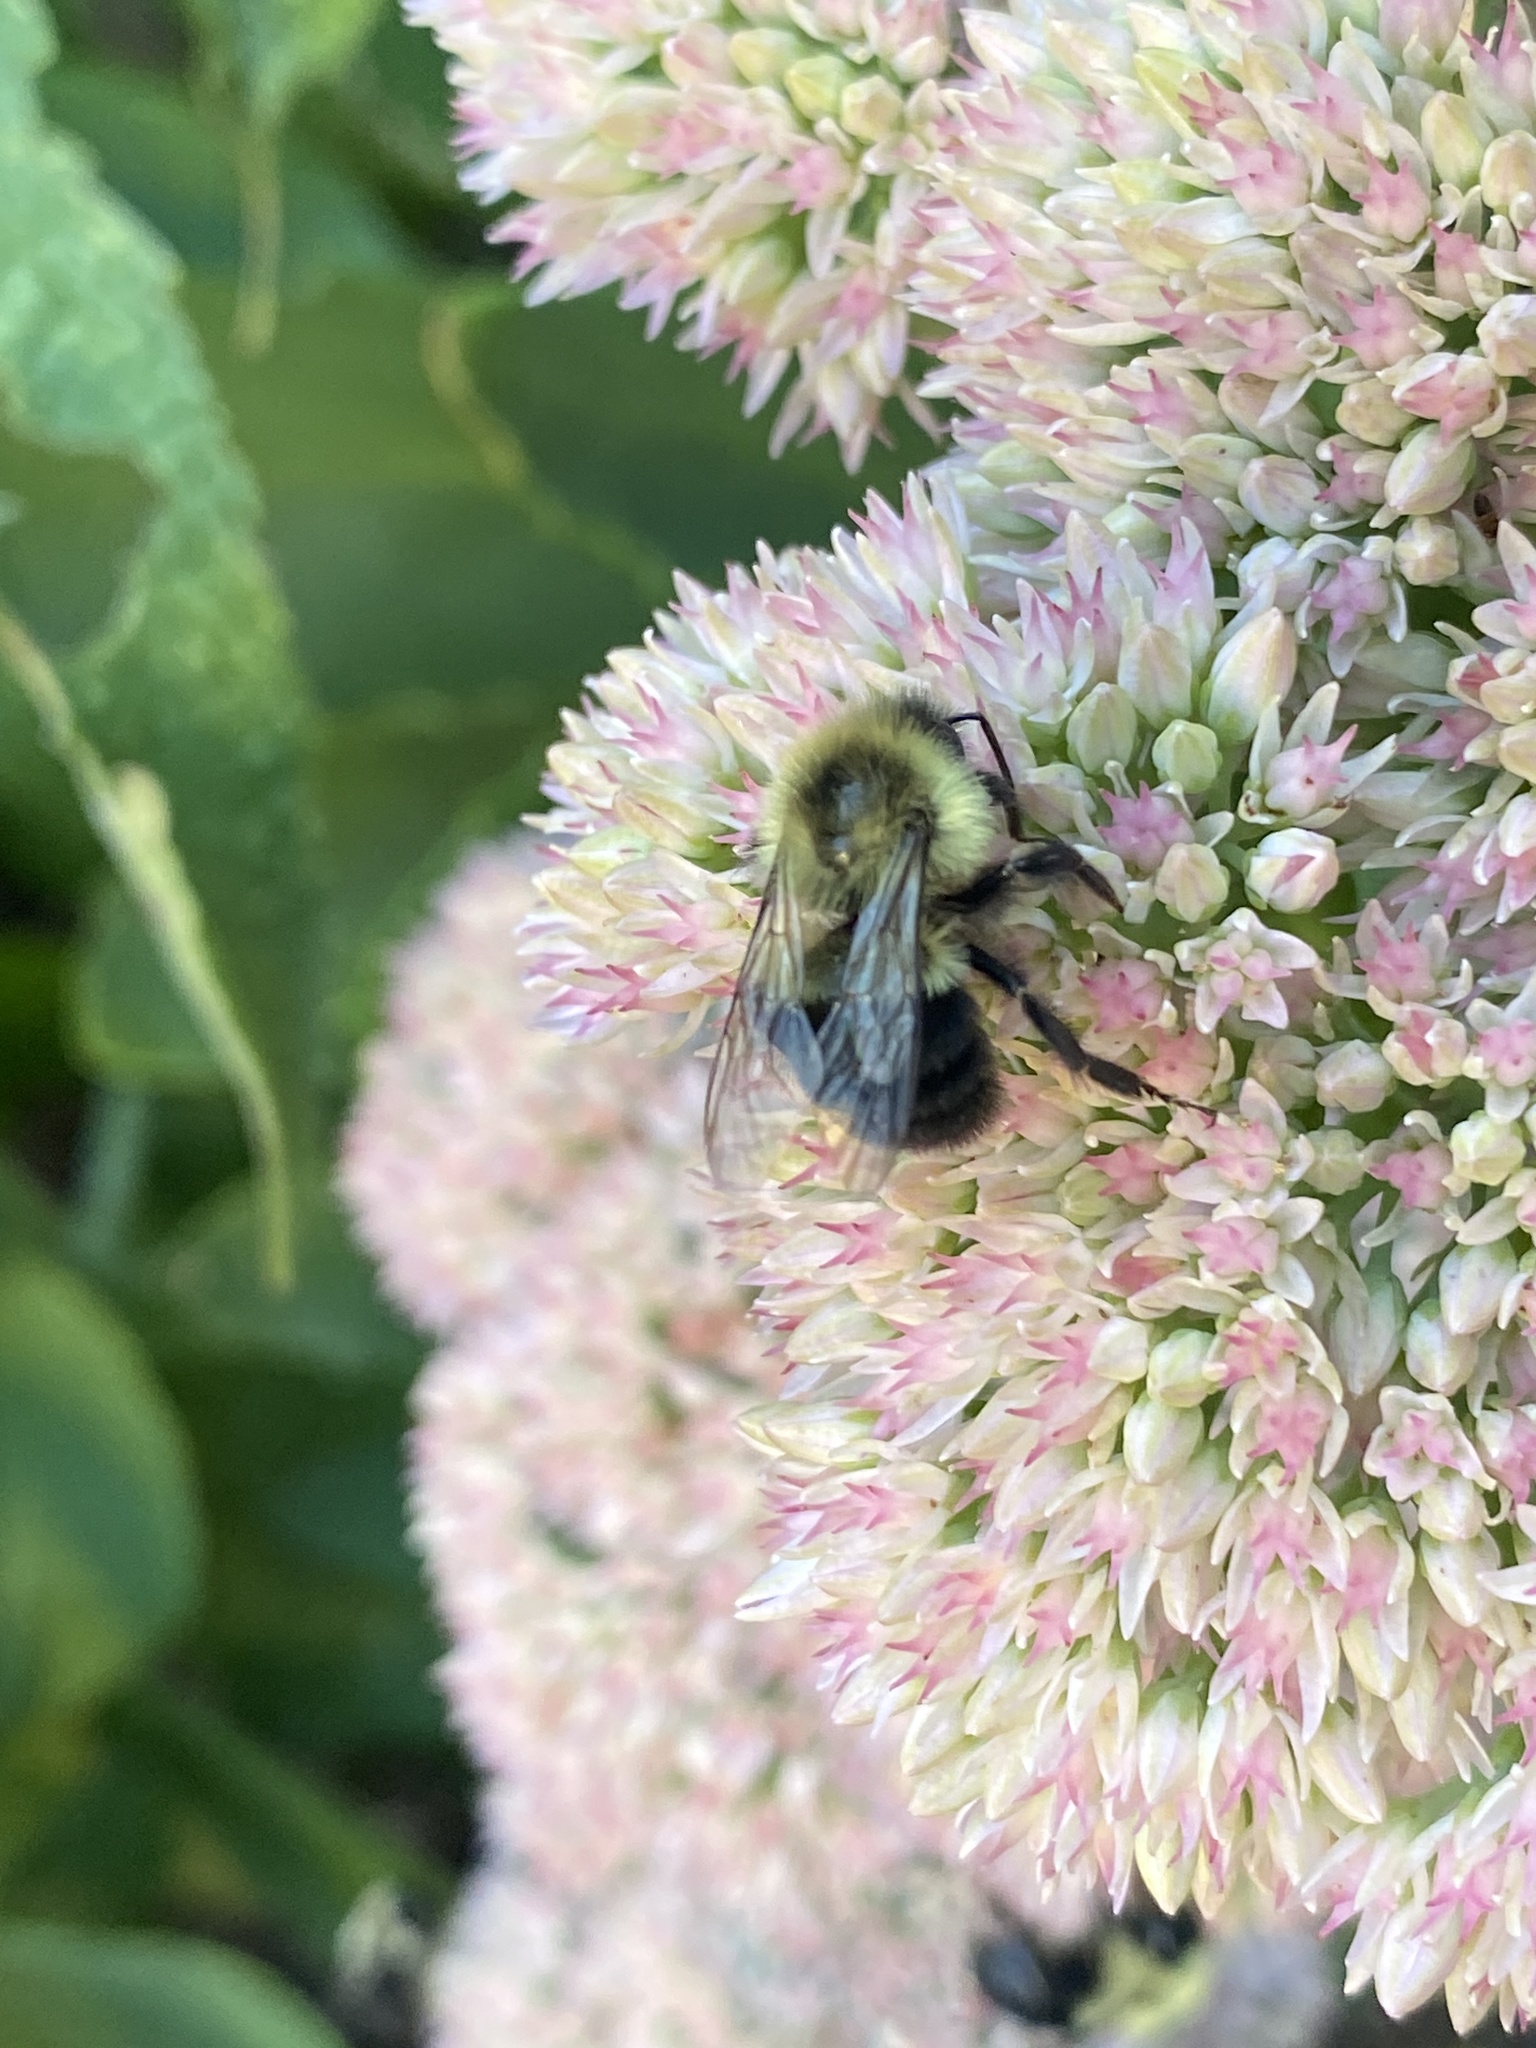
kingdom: Animalia
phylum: Arthropoda
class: Insecta
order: Hymenoptera
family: Apidae
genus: Bombus
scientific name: Bombus impatiens
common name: Common eastern bumble bee
